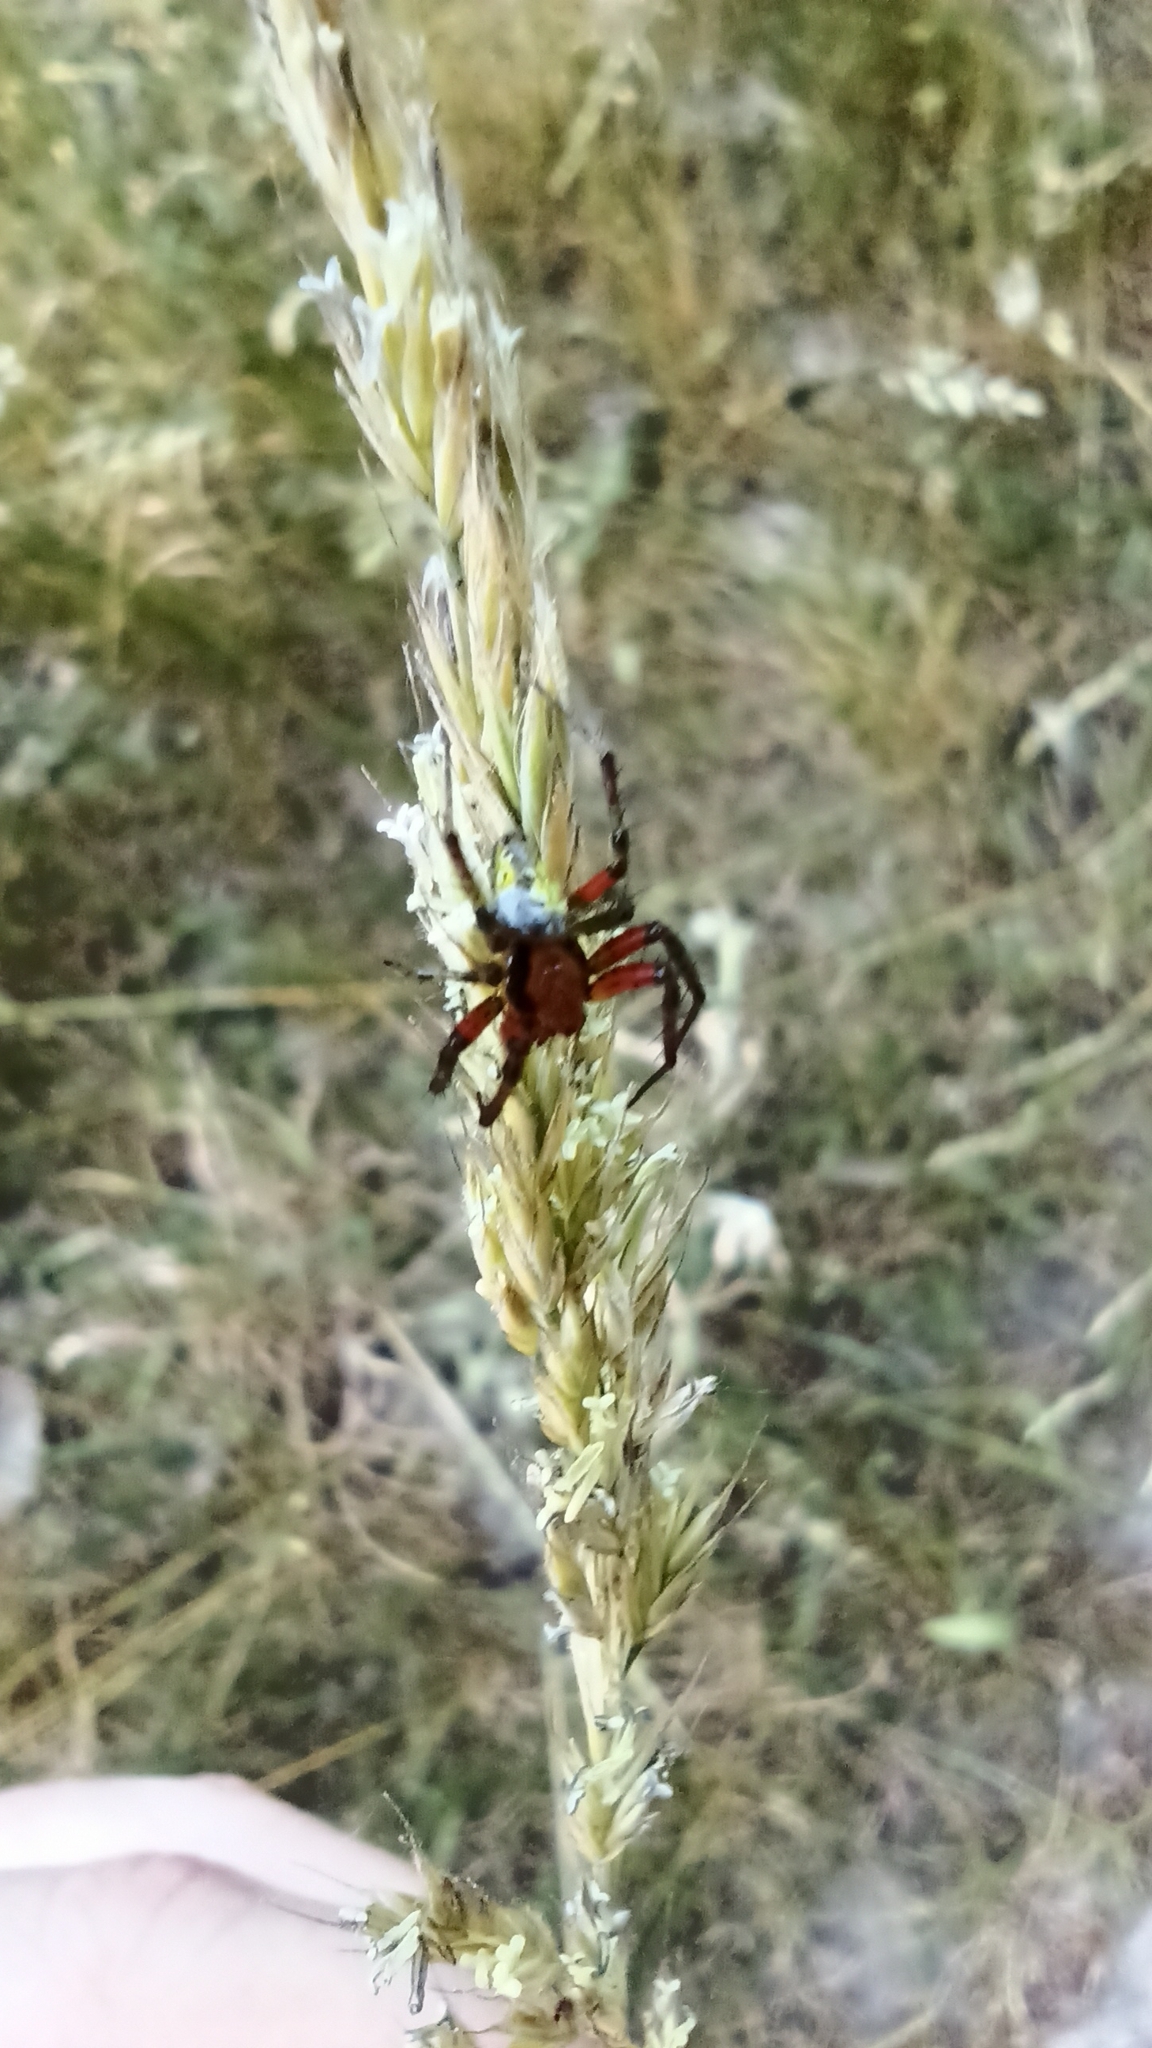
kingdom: Animalia
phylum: Arthropoda
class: Arachnida
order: Araneae
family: Araneidae
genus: Araniella
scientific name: Araniella opisthographa
